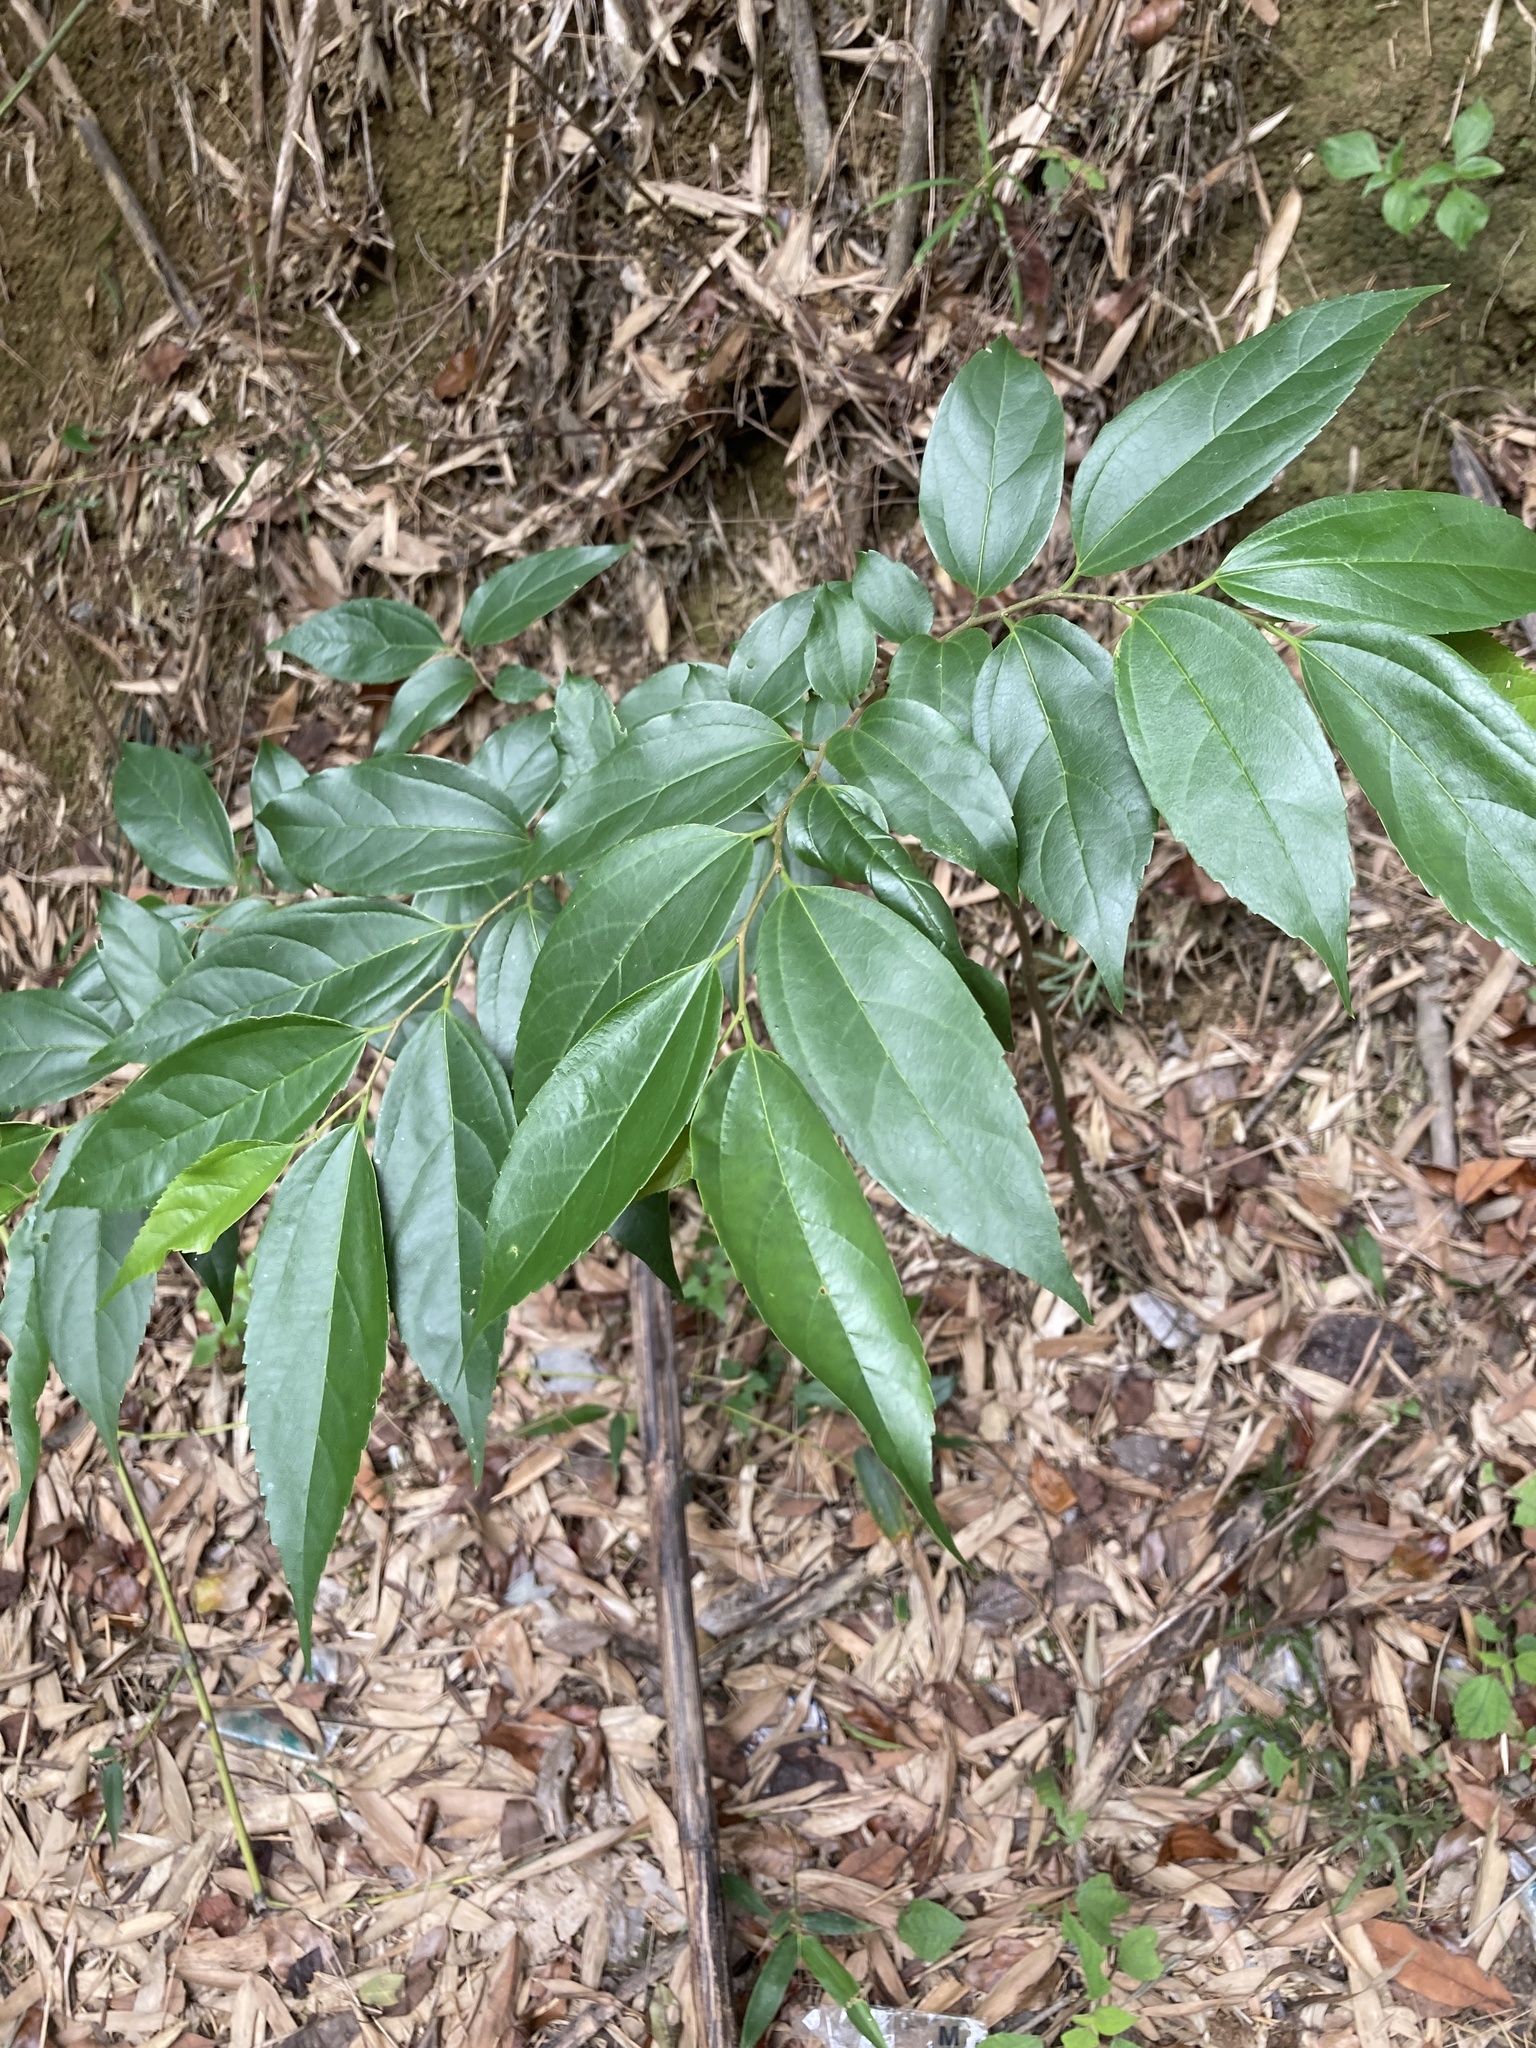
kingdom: Plantae
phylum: Tracheophyta
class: Magnoliopsida
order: Rosales
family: Cannabaceae
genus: Celtis
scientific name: Celtis tetrandra
